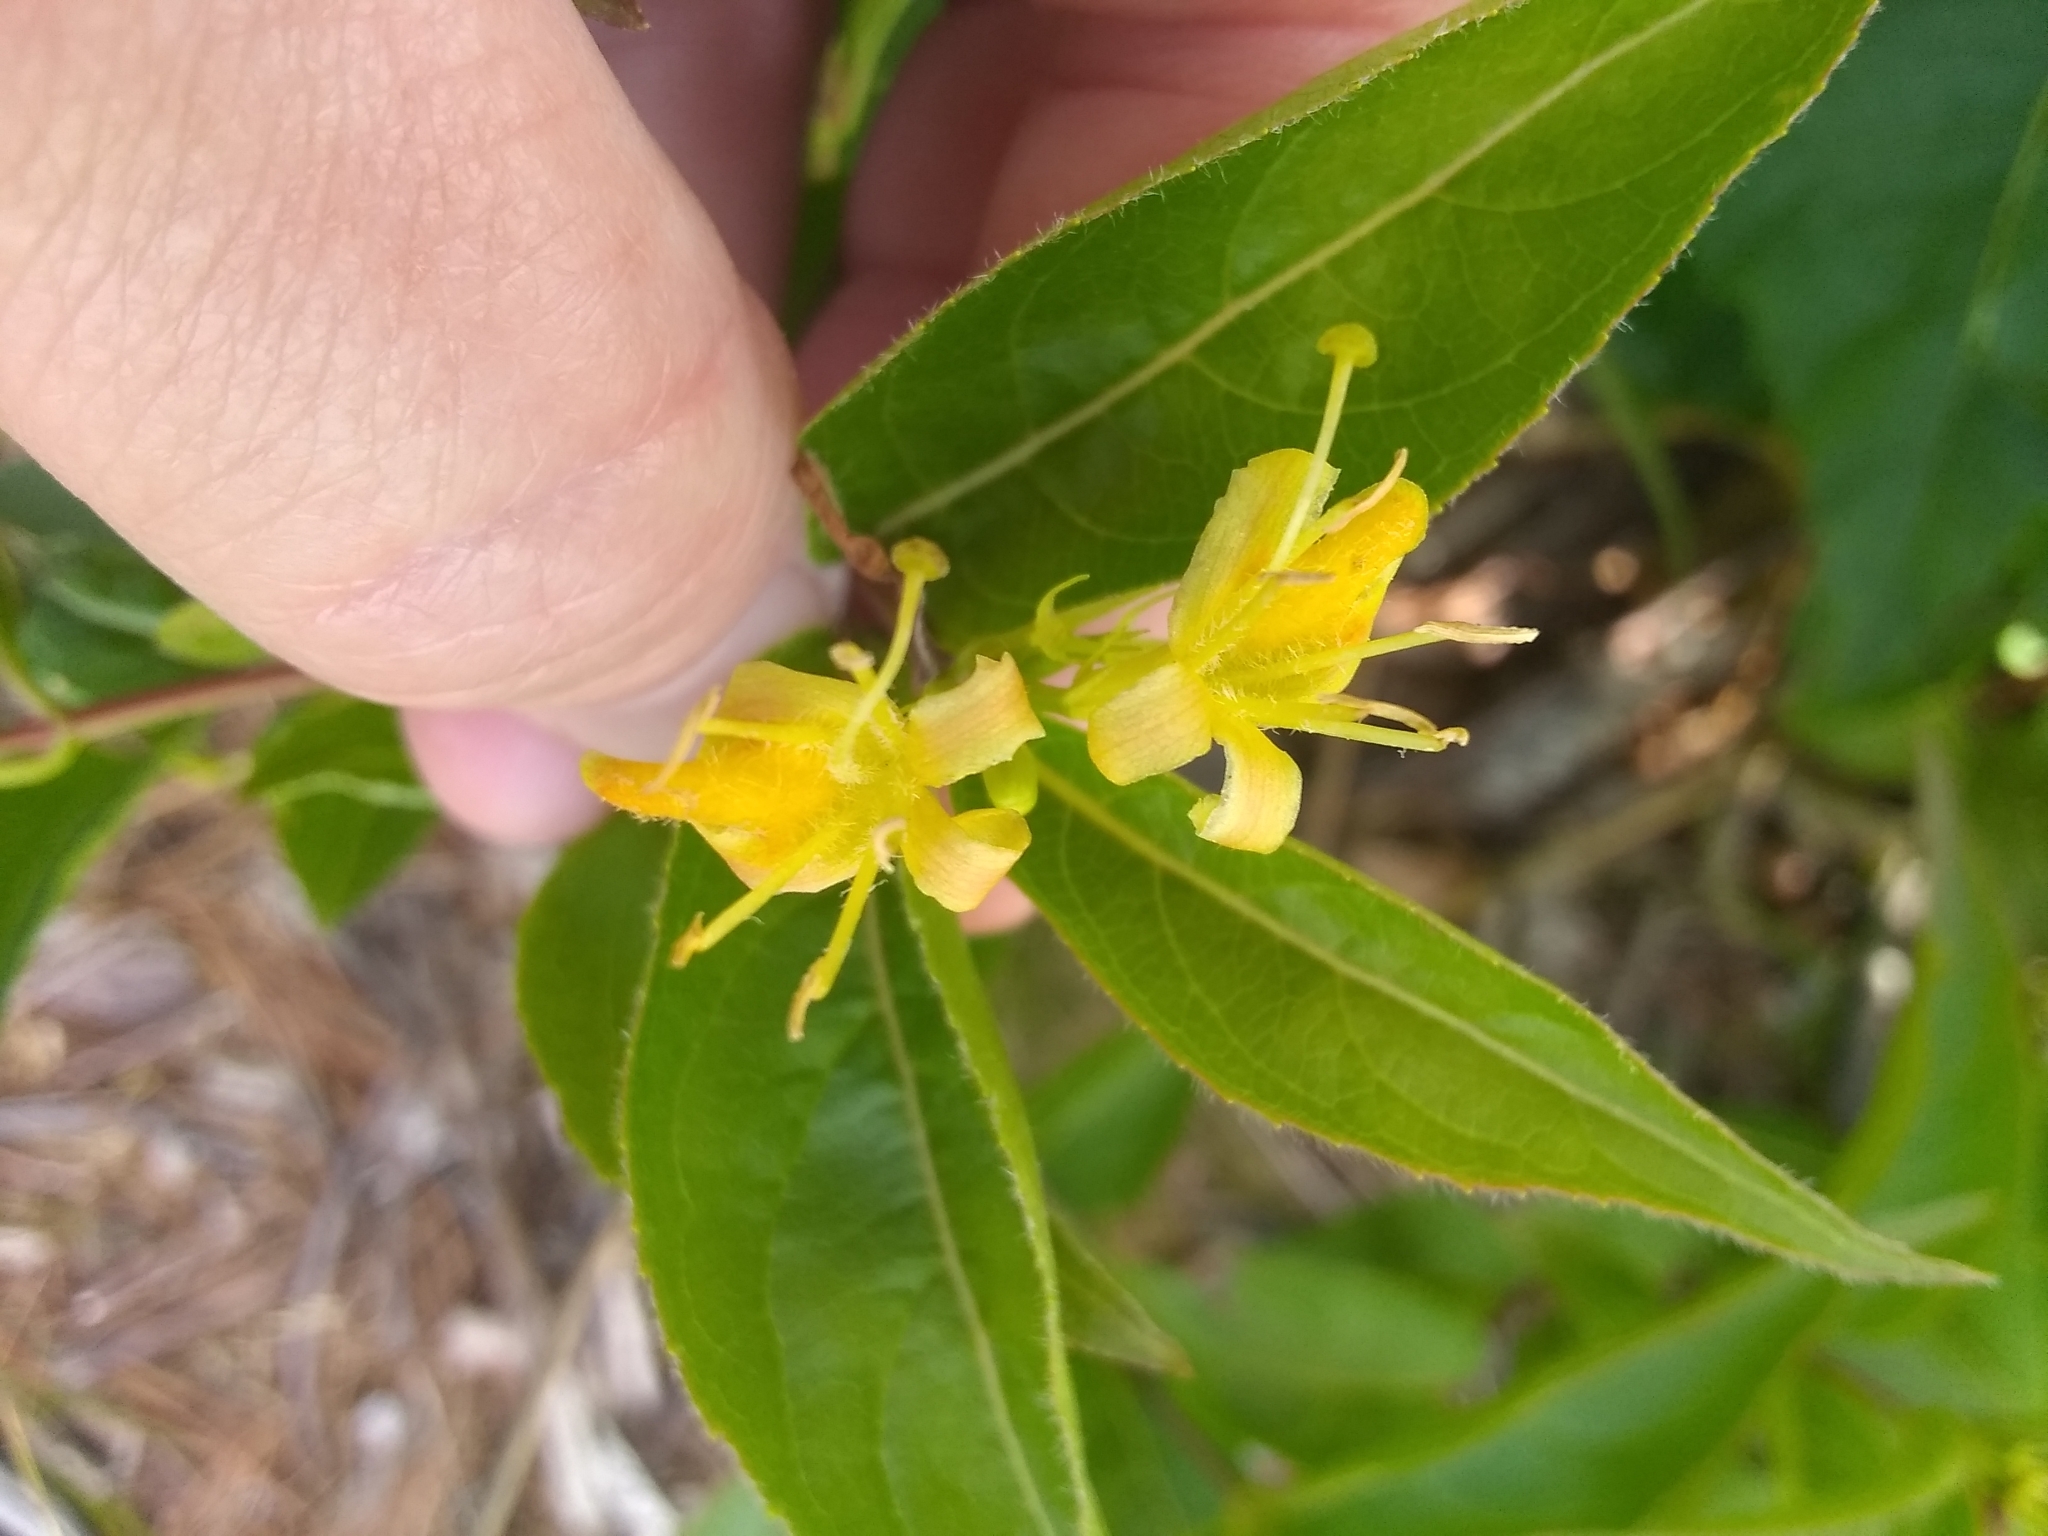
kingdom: Plantae
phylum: Tracheophyta
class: Magnoliopsida
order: Dipsacales
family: Caprifoliaceae
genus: Diervilla
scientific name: Diervilla lonicera
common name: Bush-honeysuckle
